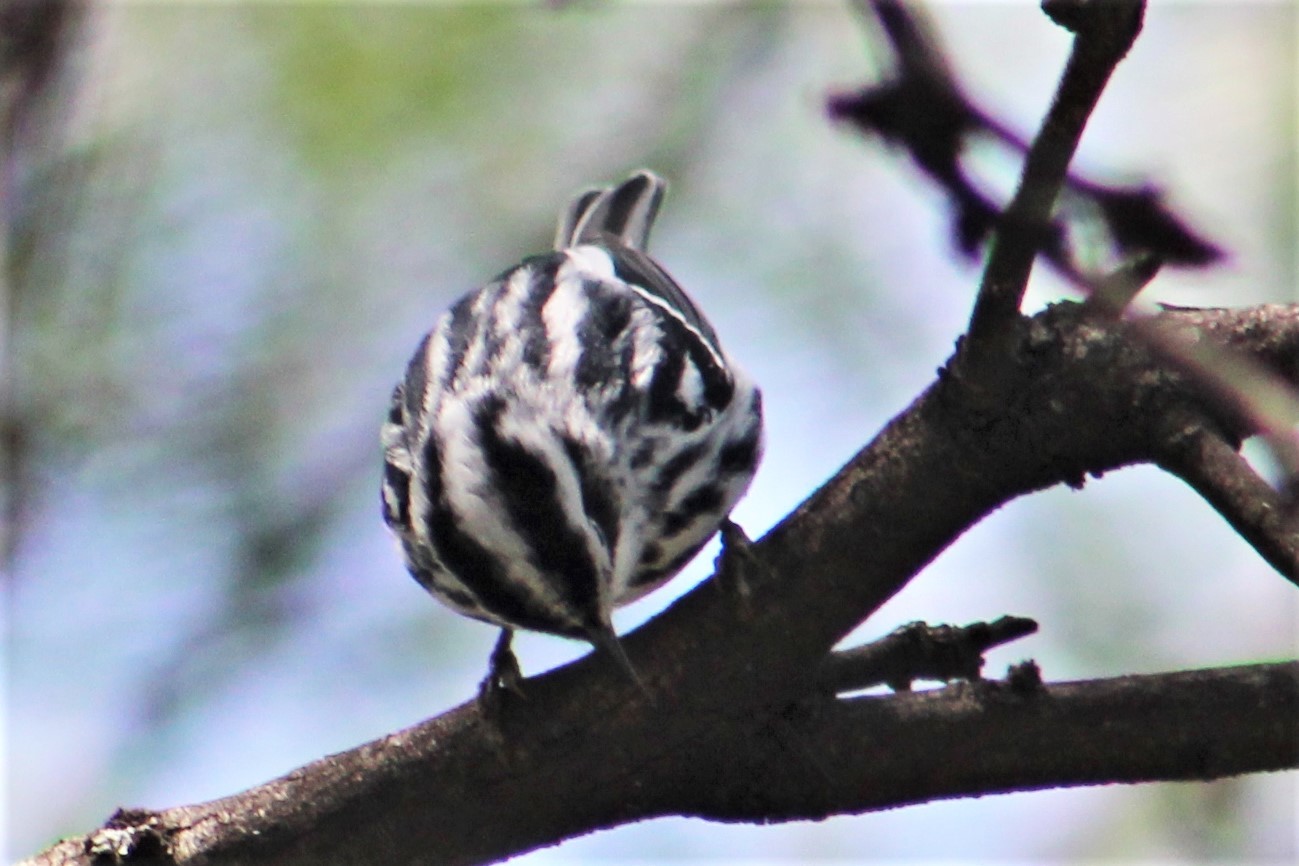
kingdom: Animalia
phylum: Chordata
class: Aves
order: Passeriformes
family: Parulidae
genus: Mniotilta
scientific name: Mniotilta varia
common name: Black-and-white warbler
